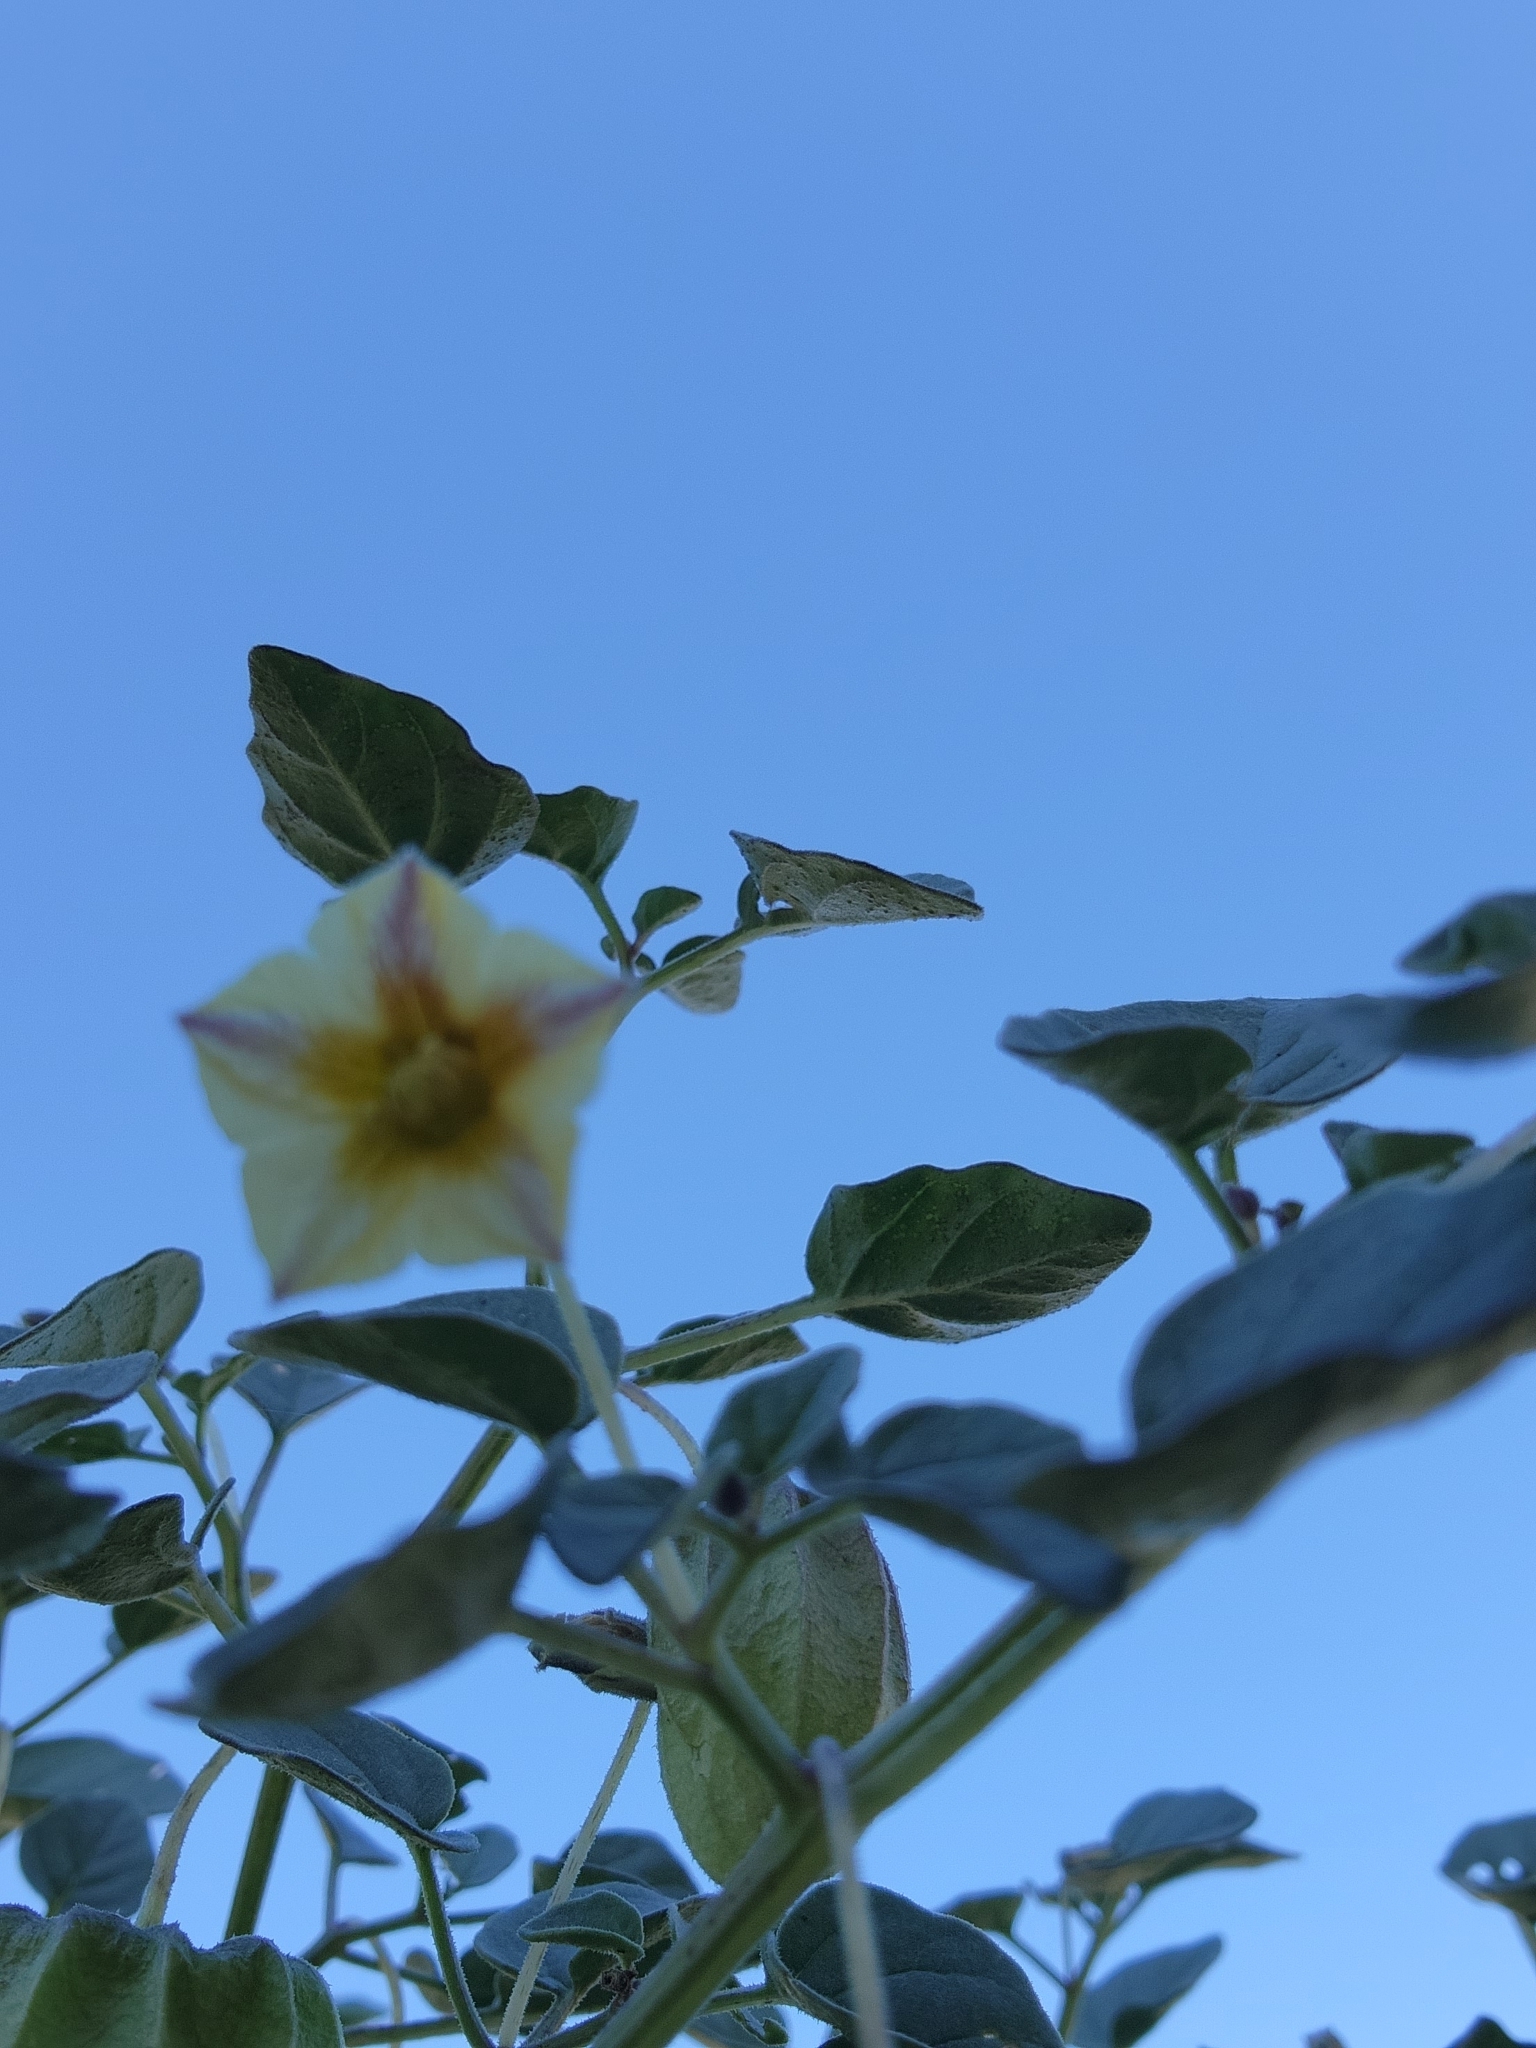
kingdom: Plantae
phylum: Tracheophyta
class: Magnoliopsida
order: Solanales
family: Solanaceae
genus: Physalis
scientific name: Physalis crassifolia
